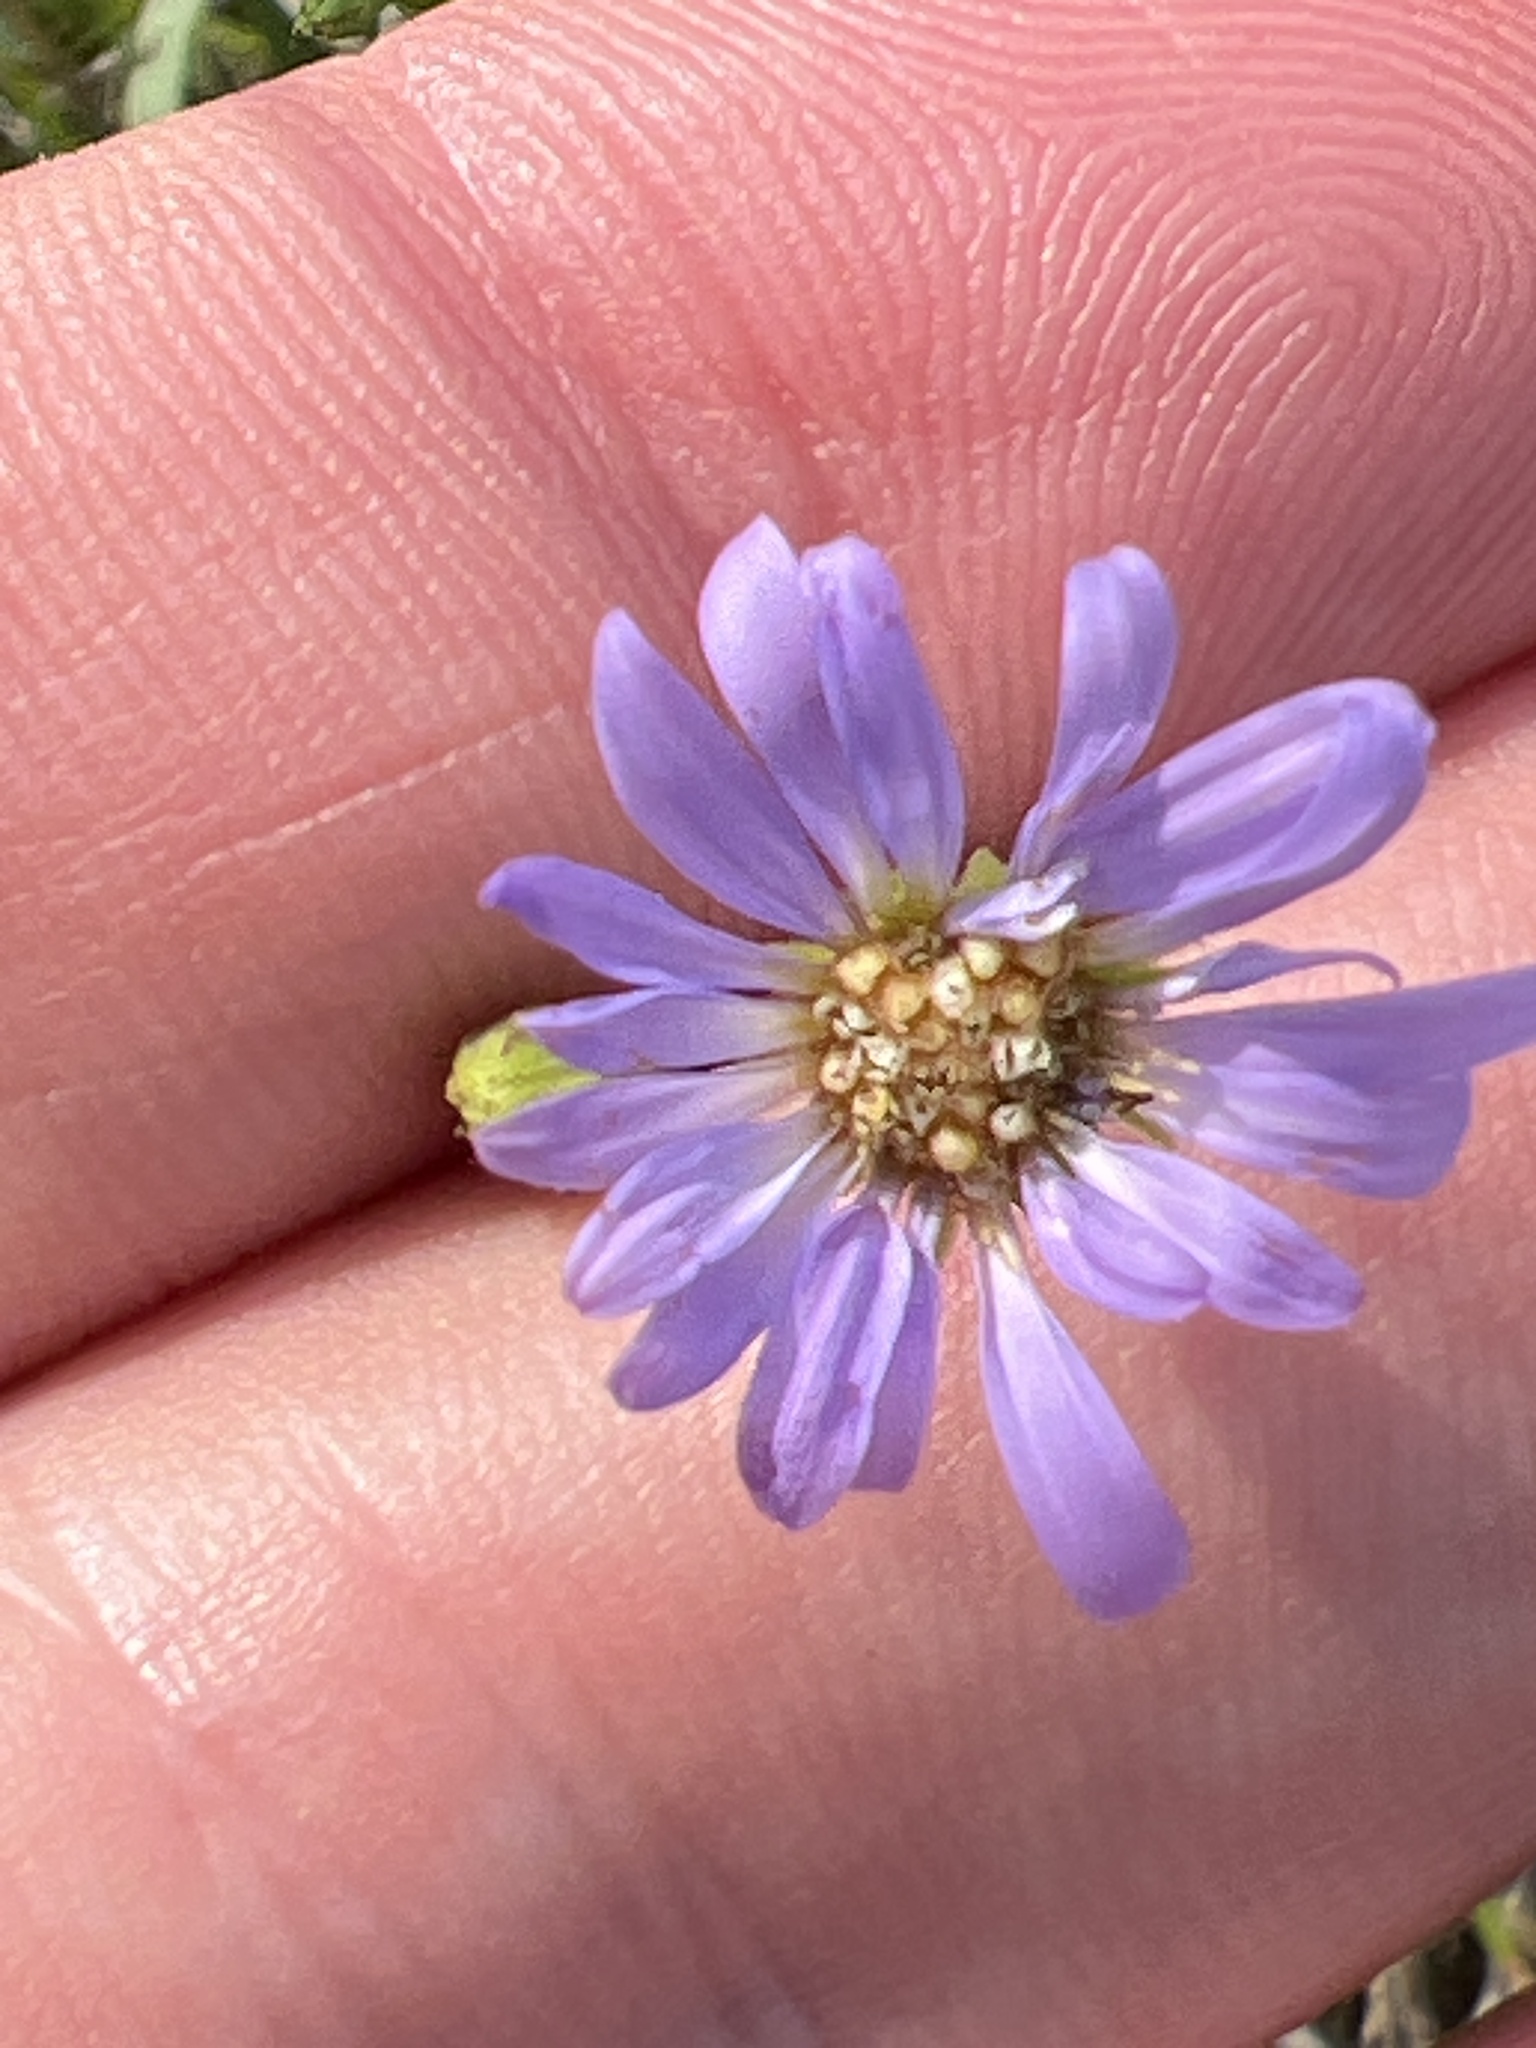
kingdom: Plantae
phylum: Tracheophyta
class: Magnoliopsida
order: Asterales
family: Asteraceae
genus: Symphyotrichum
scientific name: Symphyotrichum laeve
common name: Glaucous aster
